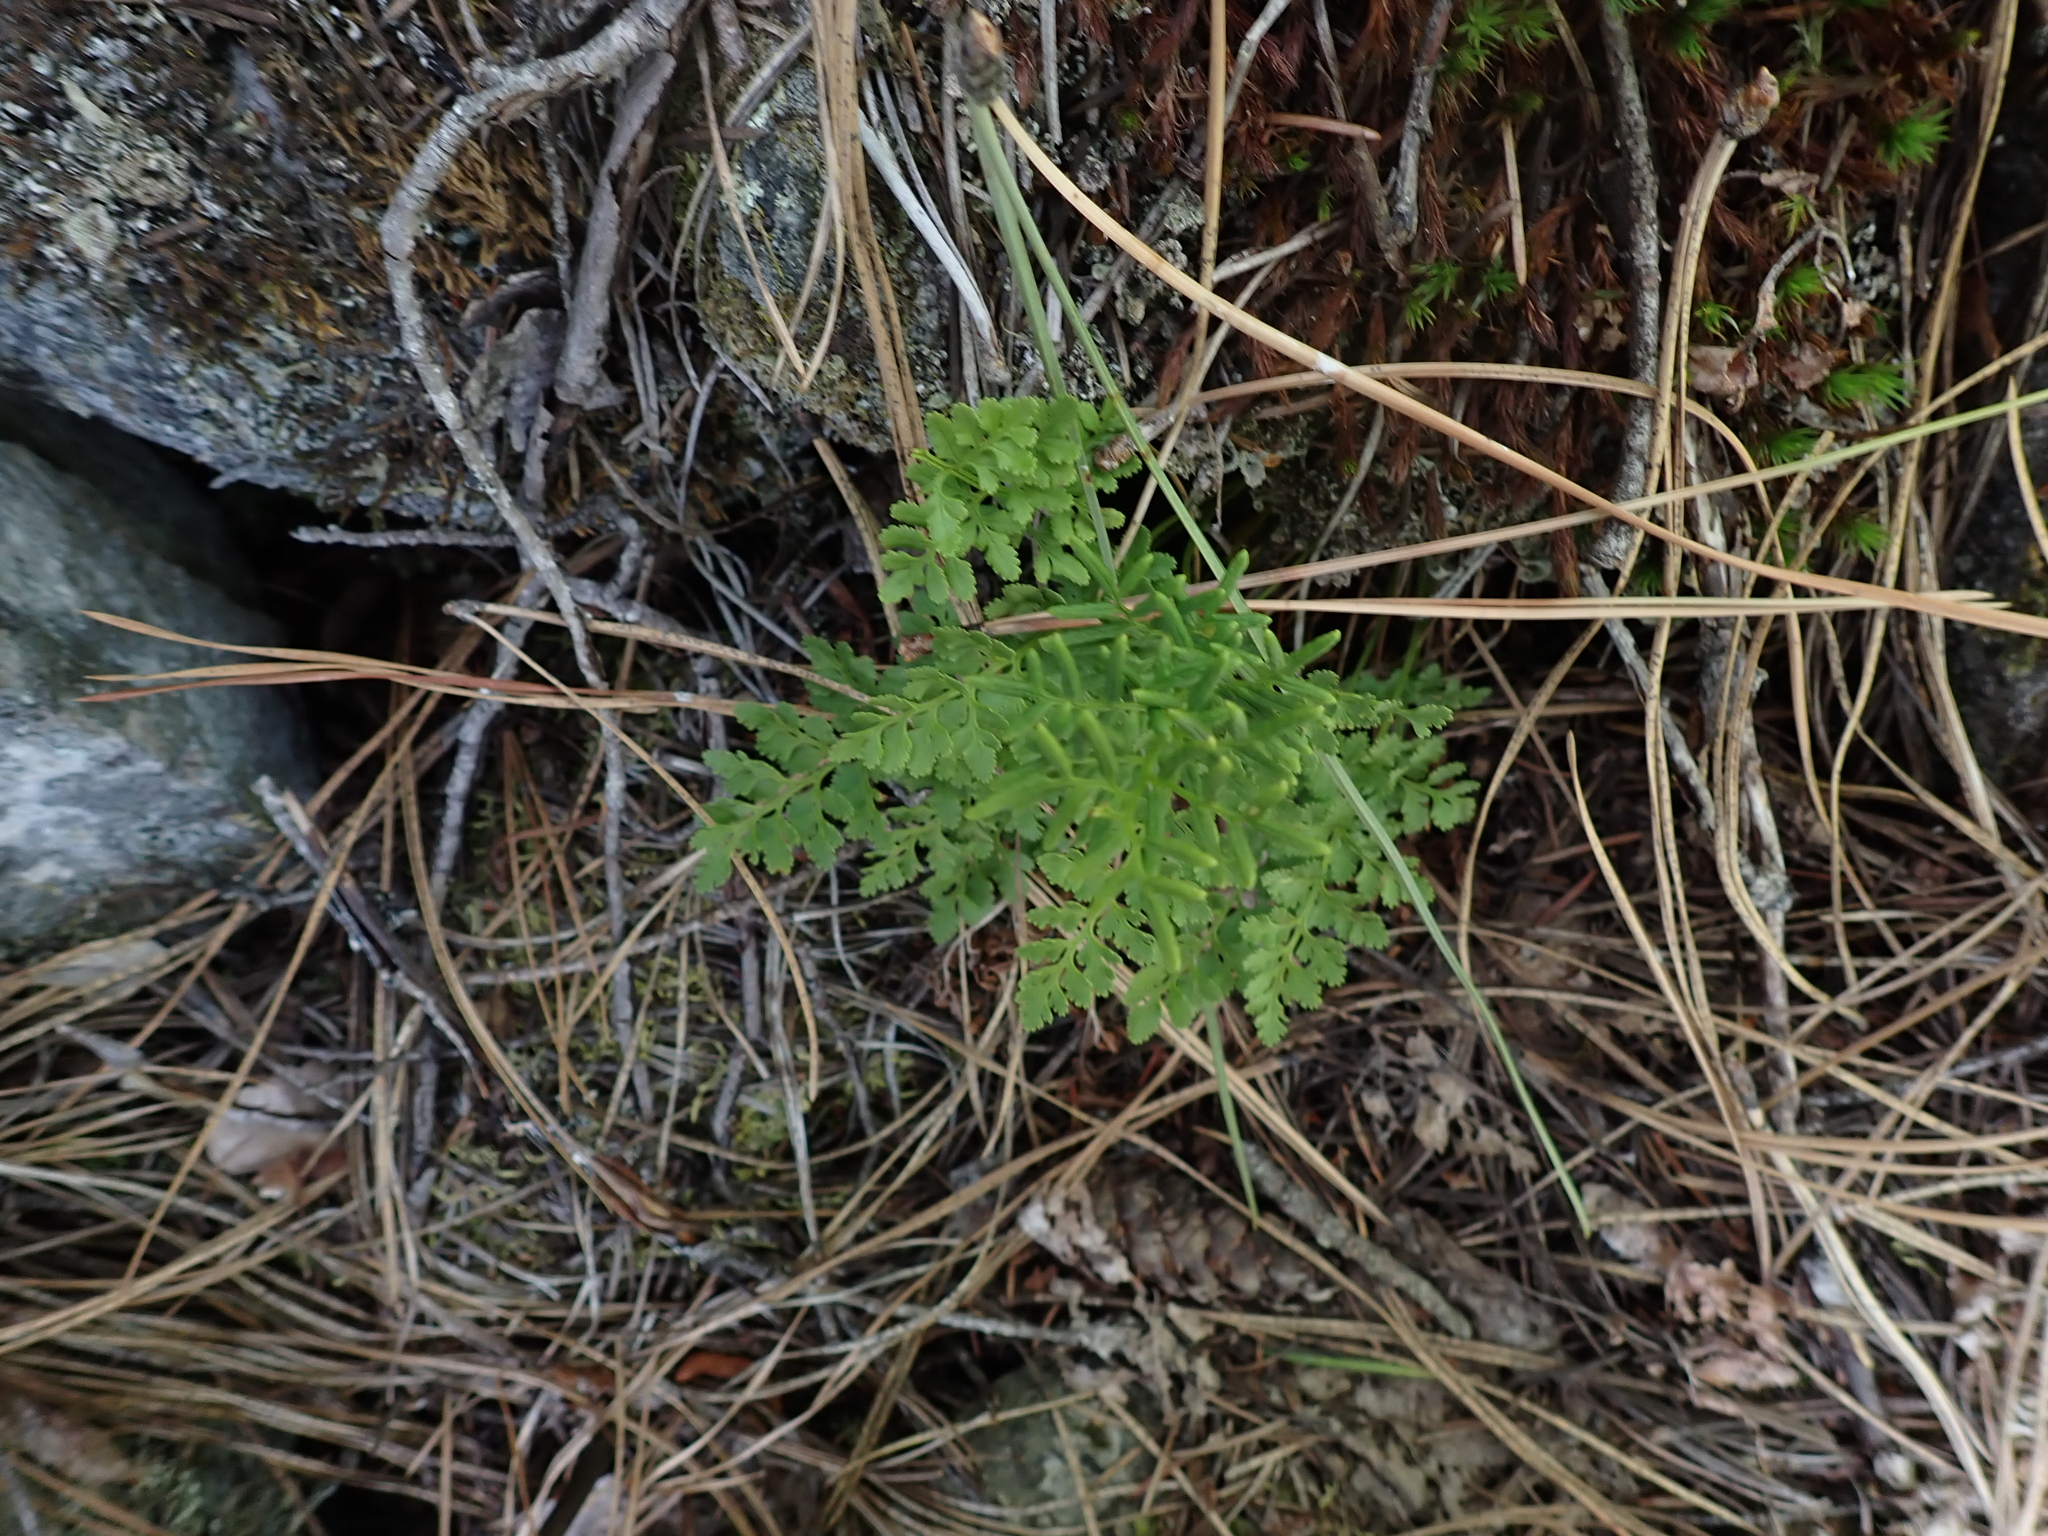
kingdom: Plantae
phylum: Tracheophyta
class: Polypodiopsida
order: Polypodiales
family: Pteridaceae
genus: Cryptogramma
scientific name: Cryptogramma acrostichoides
